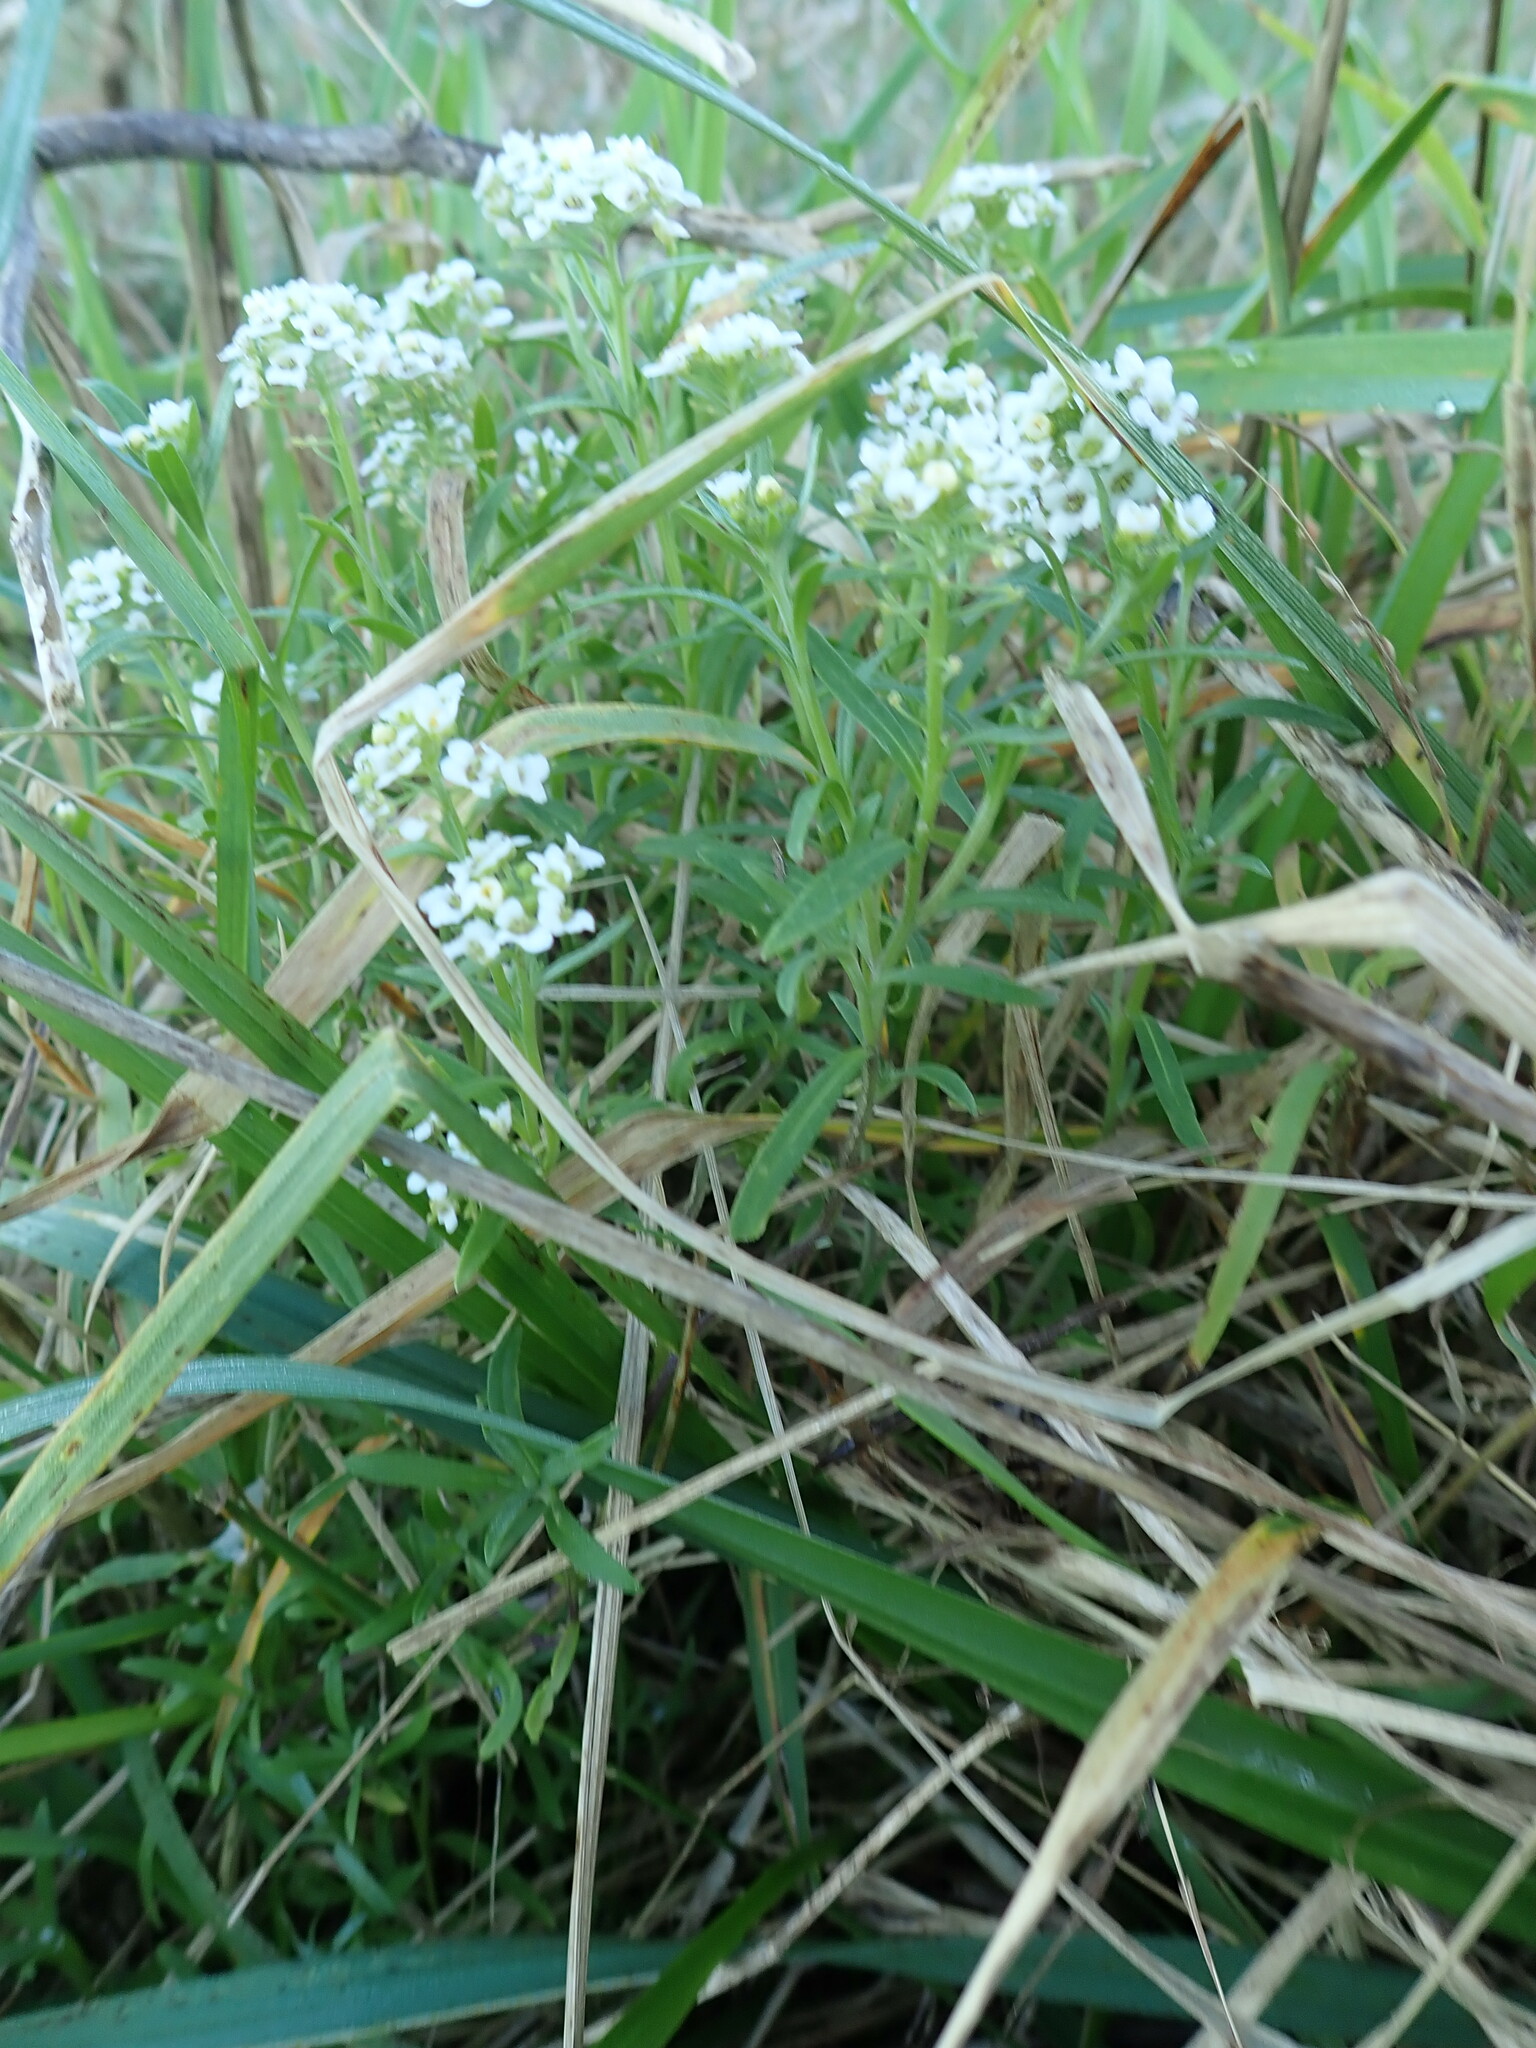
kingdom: Plantae
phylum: Tracheophyta
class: Magnoliopsida
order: Brassicales
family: Brassicaceae
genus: Lobularia
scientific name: Lobularia maritima
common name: Sweet alison
